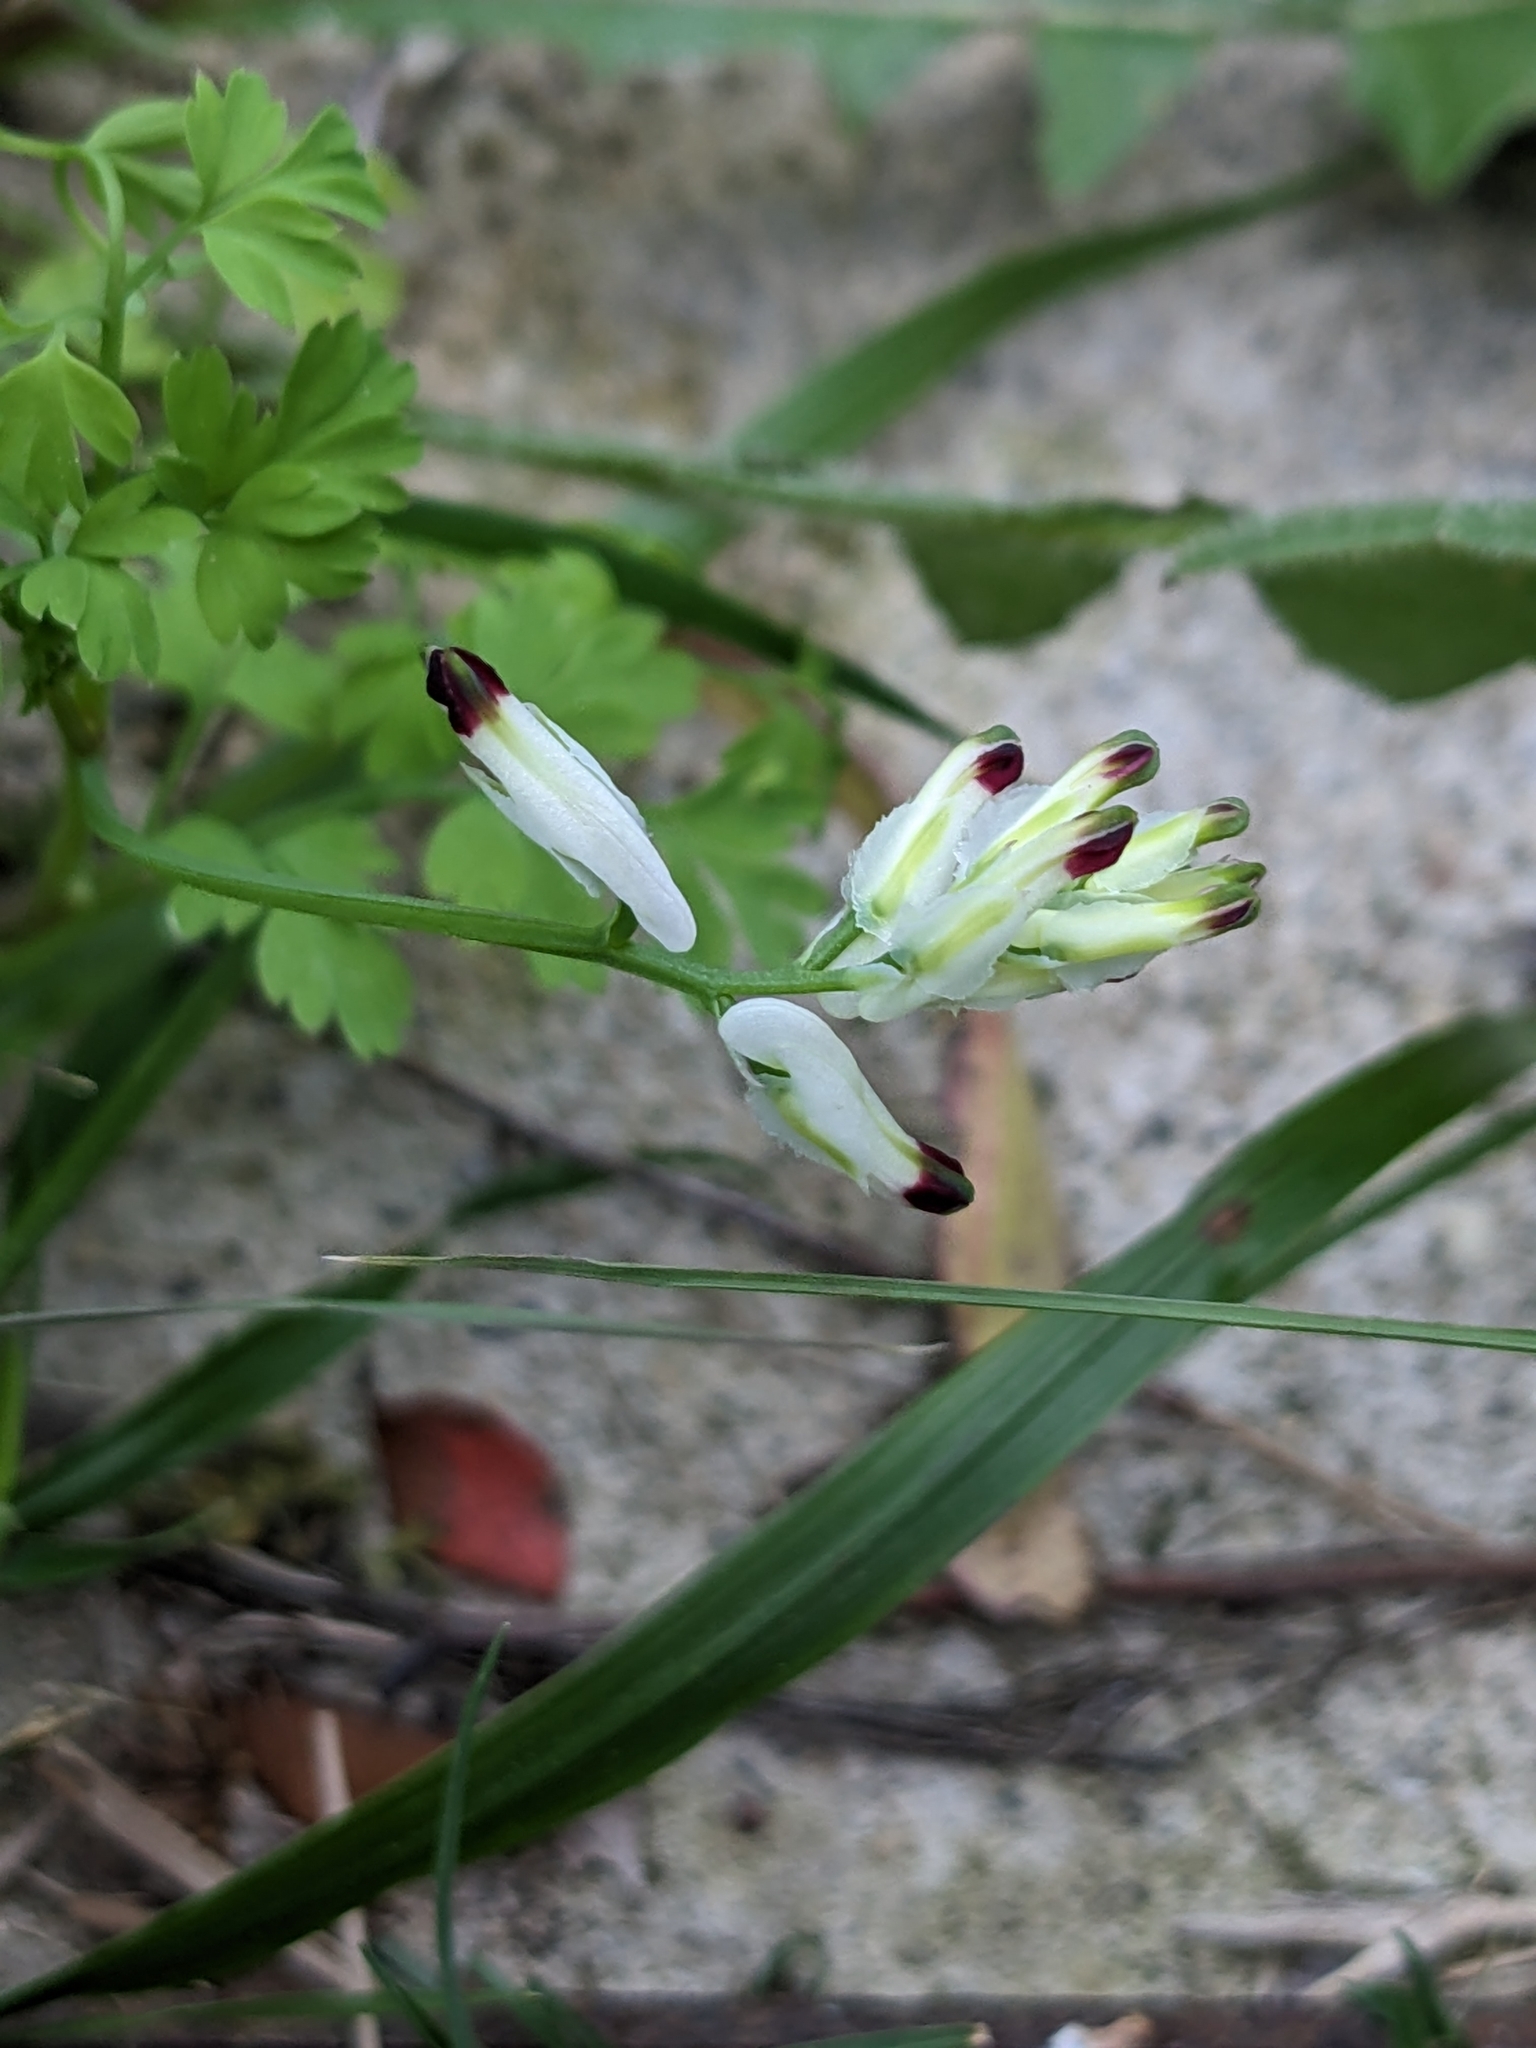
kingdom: Plantae
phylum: Tracheophyta
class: Magnoliopsida
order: Ranunculales
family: Papaveraceae
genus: Fumaria
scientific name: Fumaria capreolata
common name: White ramping-fumitory
